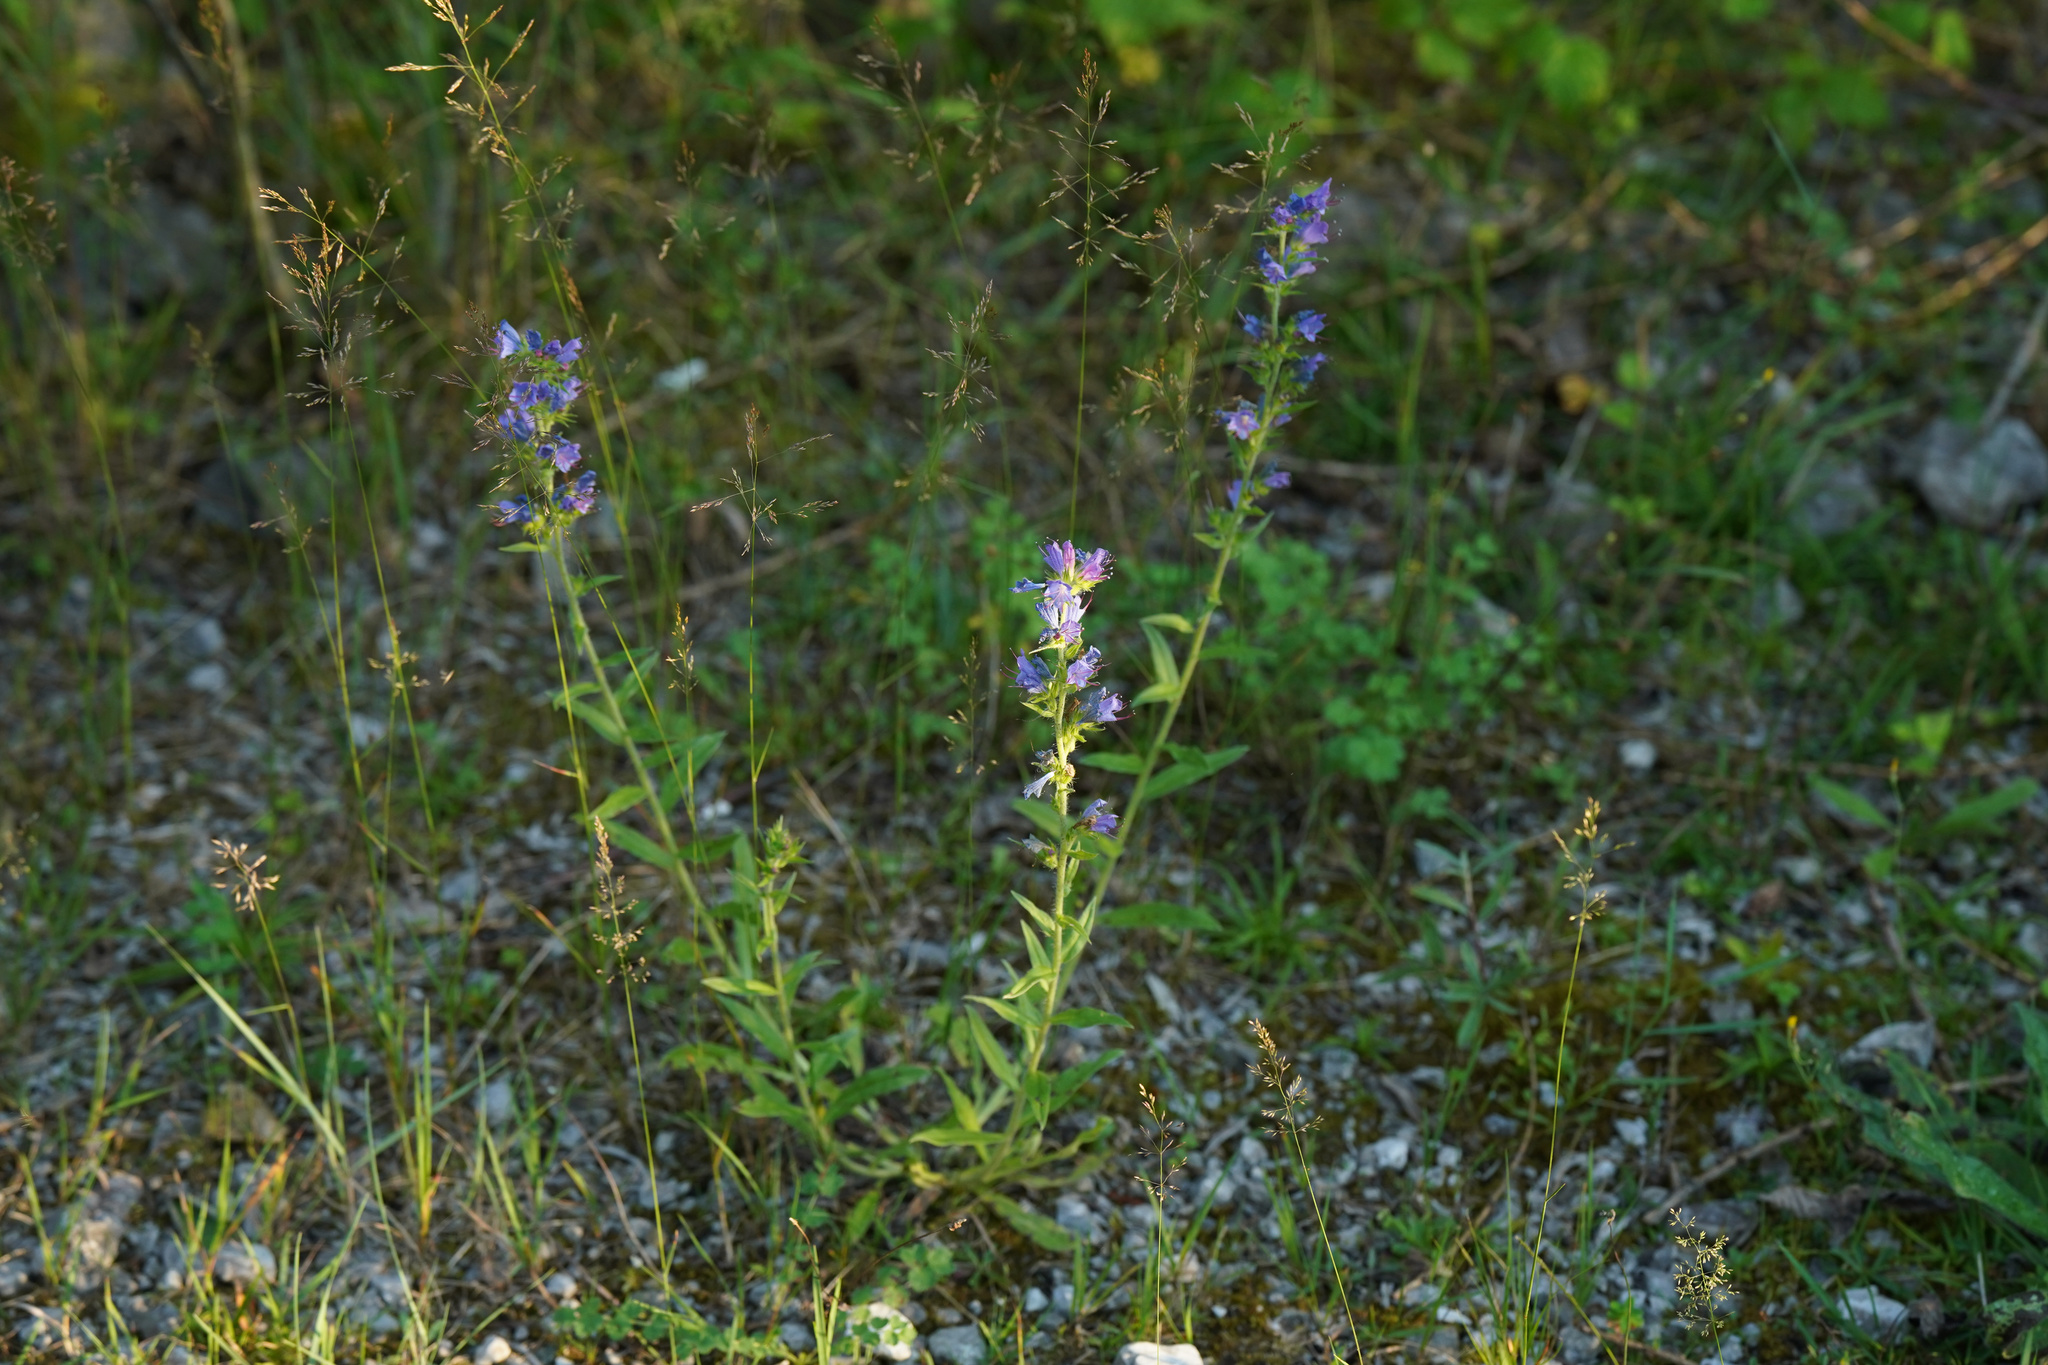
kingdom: Plantae
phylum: Tracheophyta
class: Magnoliopsida
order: Boraginales
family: Boraginaceae
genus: Echium
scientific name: Echium vulgare
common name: Common viper's bugloss
